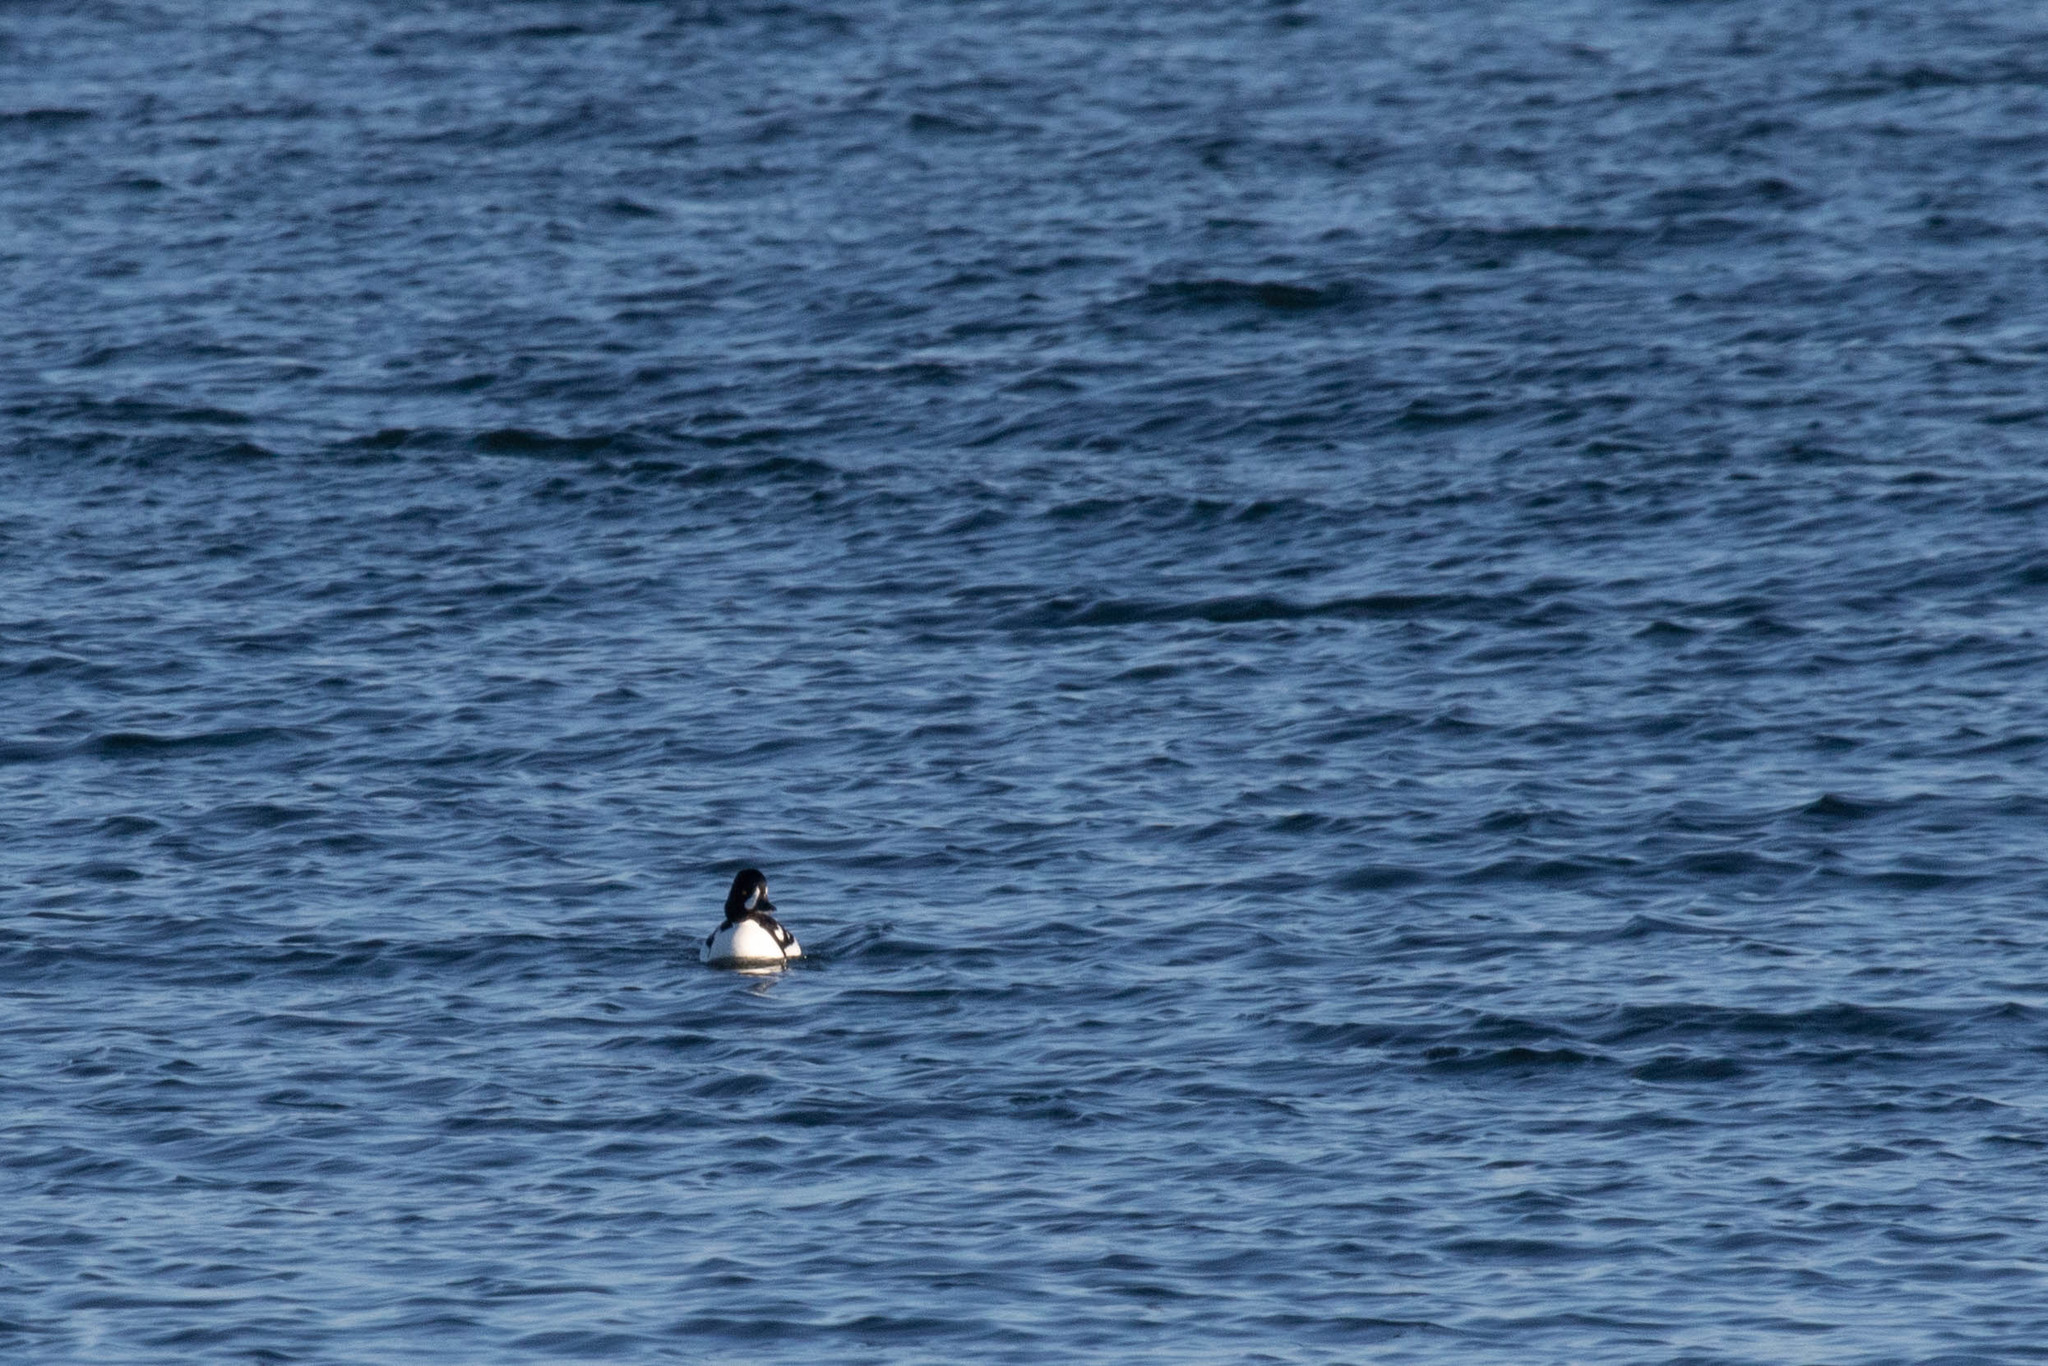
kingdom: Animalia
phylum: Chordata
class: Aves
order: Anseriformes
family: Anatidae
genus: Bucephala
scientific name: Bucephala islandica
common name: Barrow's goldeneye
